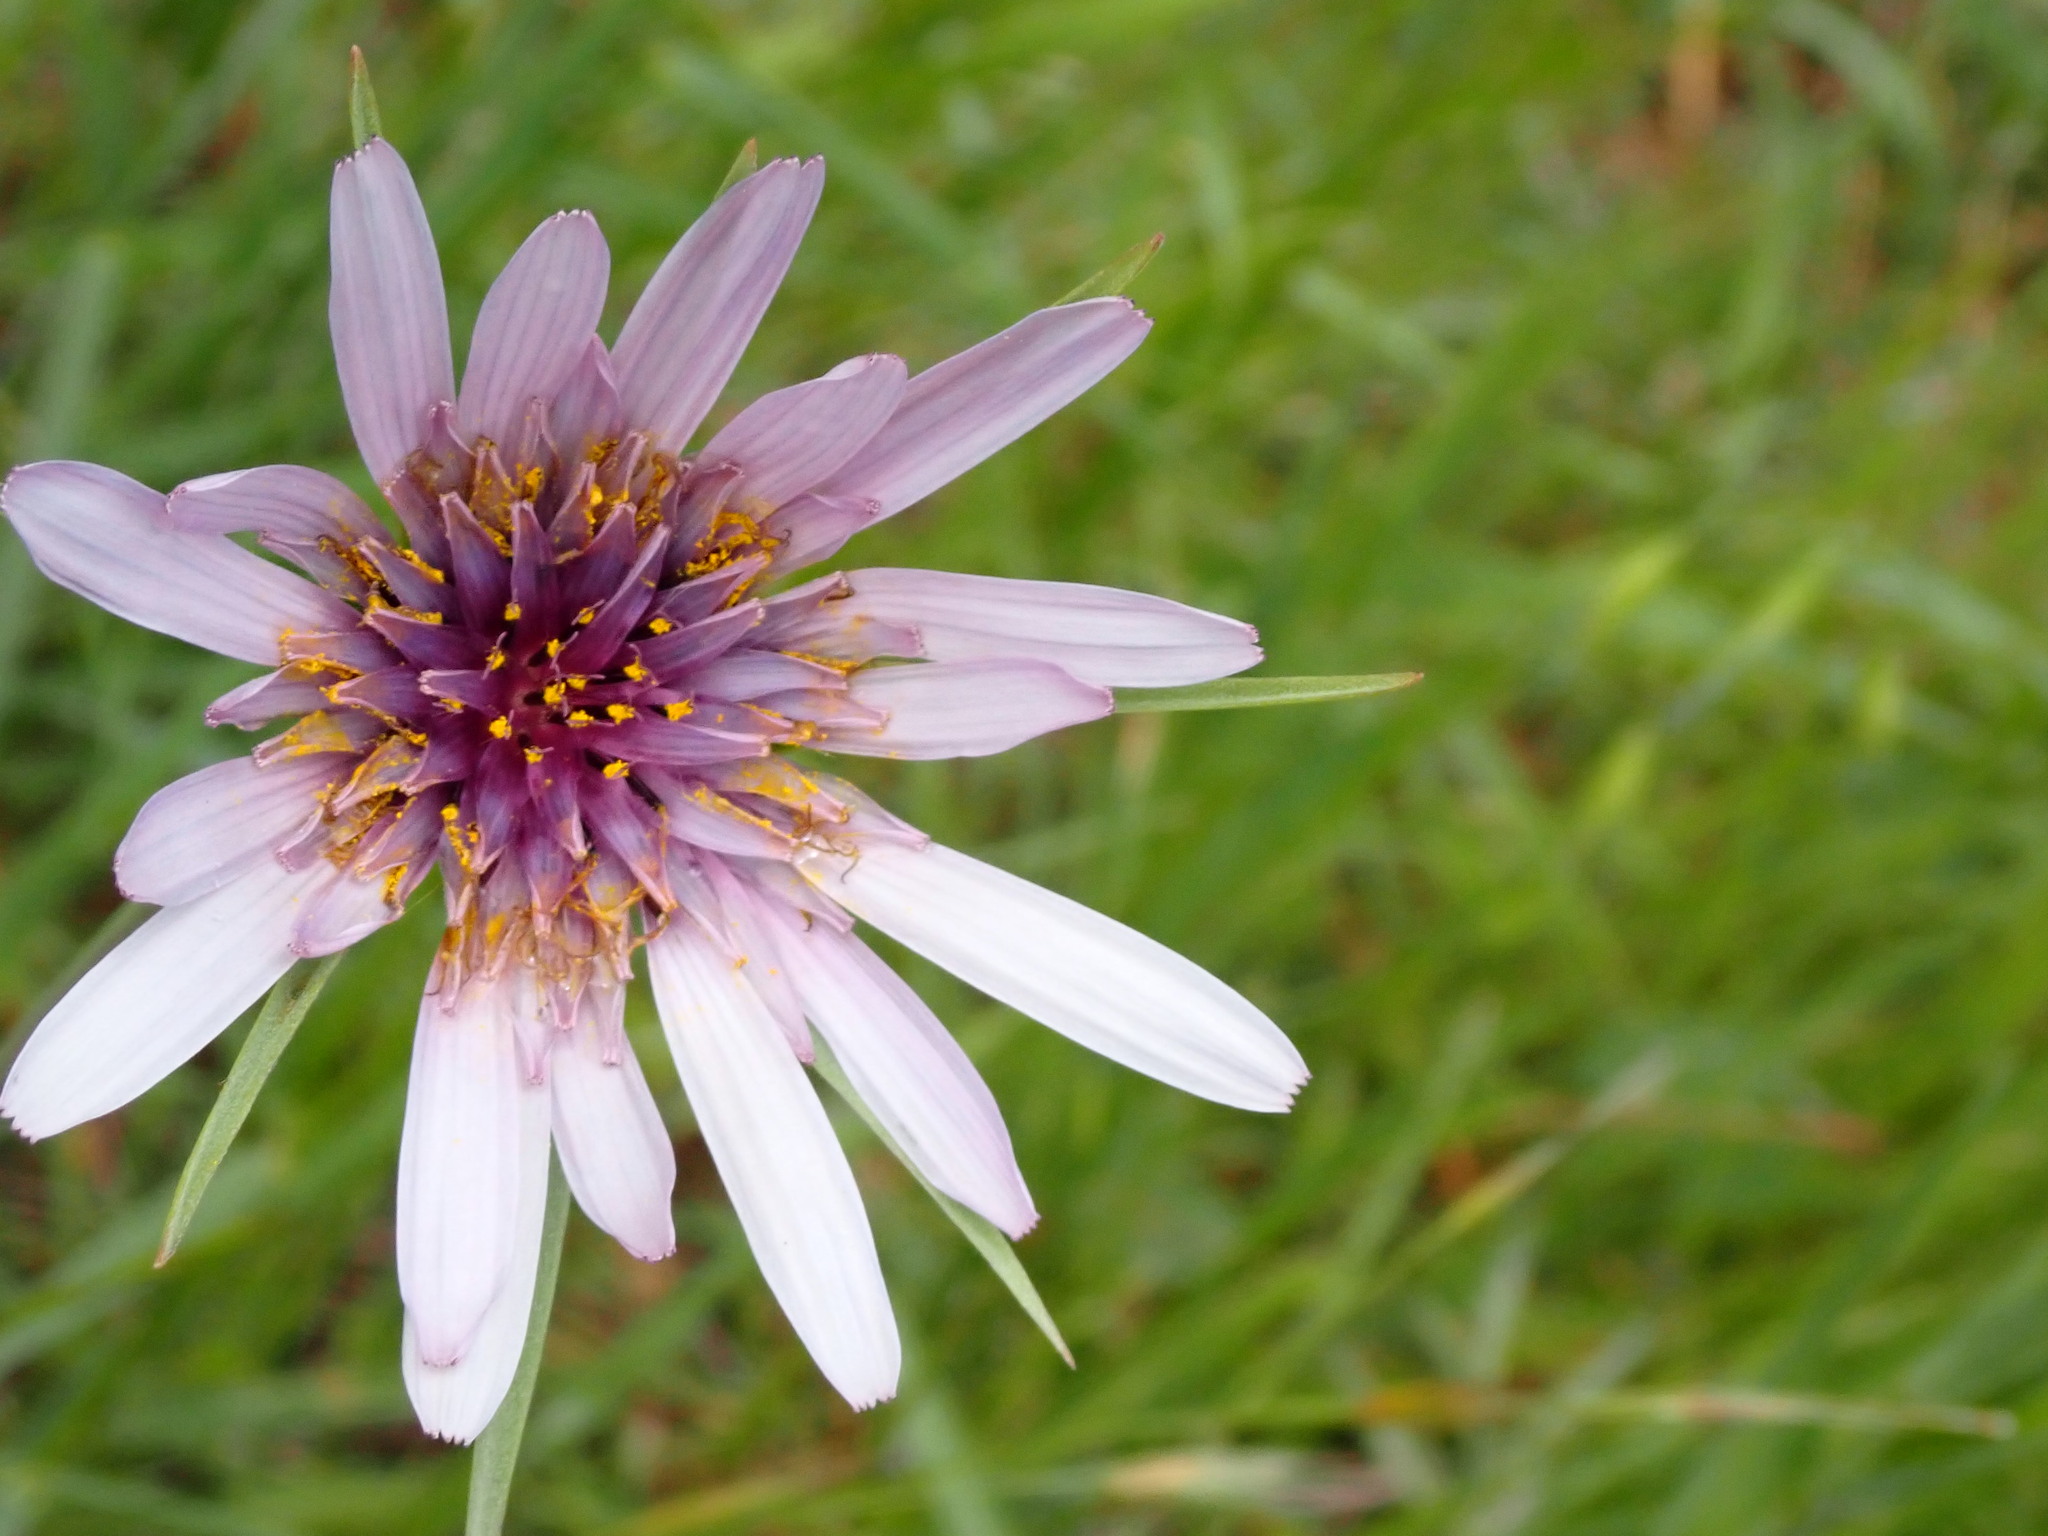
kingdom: Plantae
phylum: Tracheophyta
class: Magnoliopsida
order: Asterales
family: Asteraceae
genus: Tragopogon
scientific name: Tragopogon porrifolius
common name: Salsify
